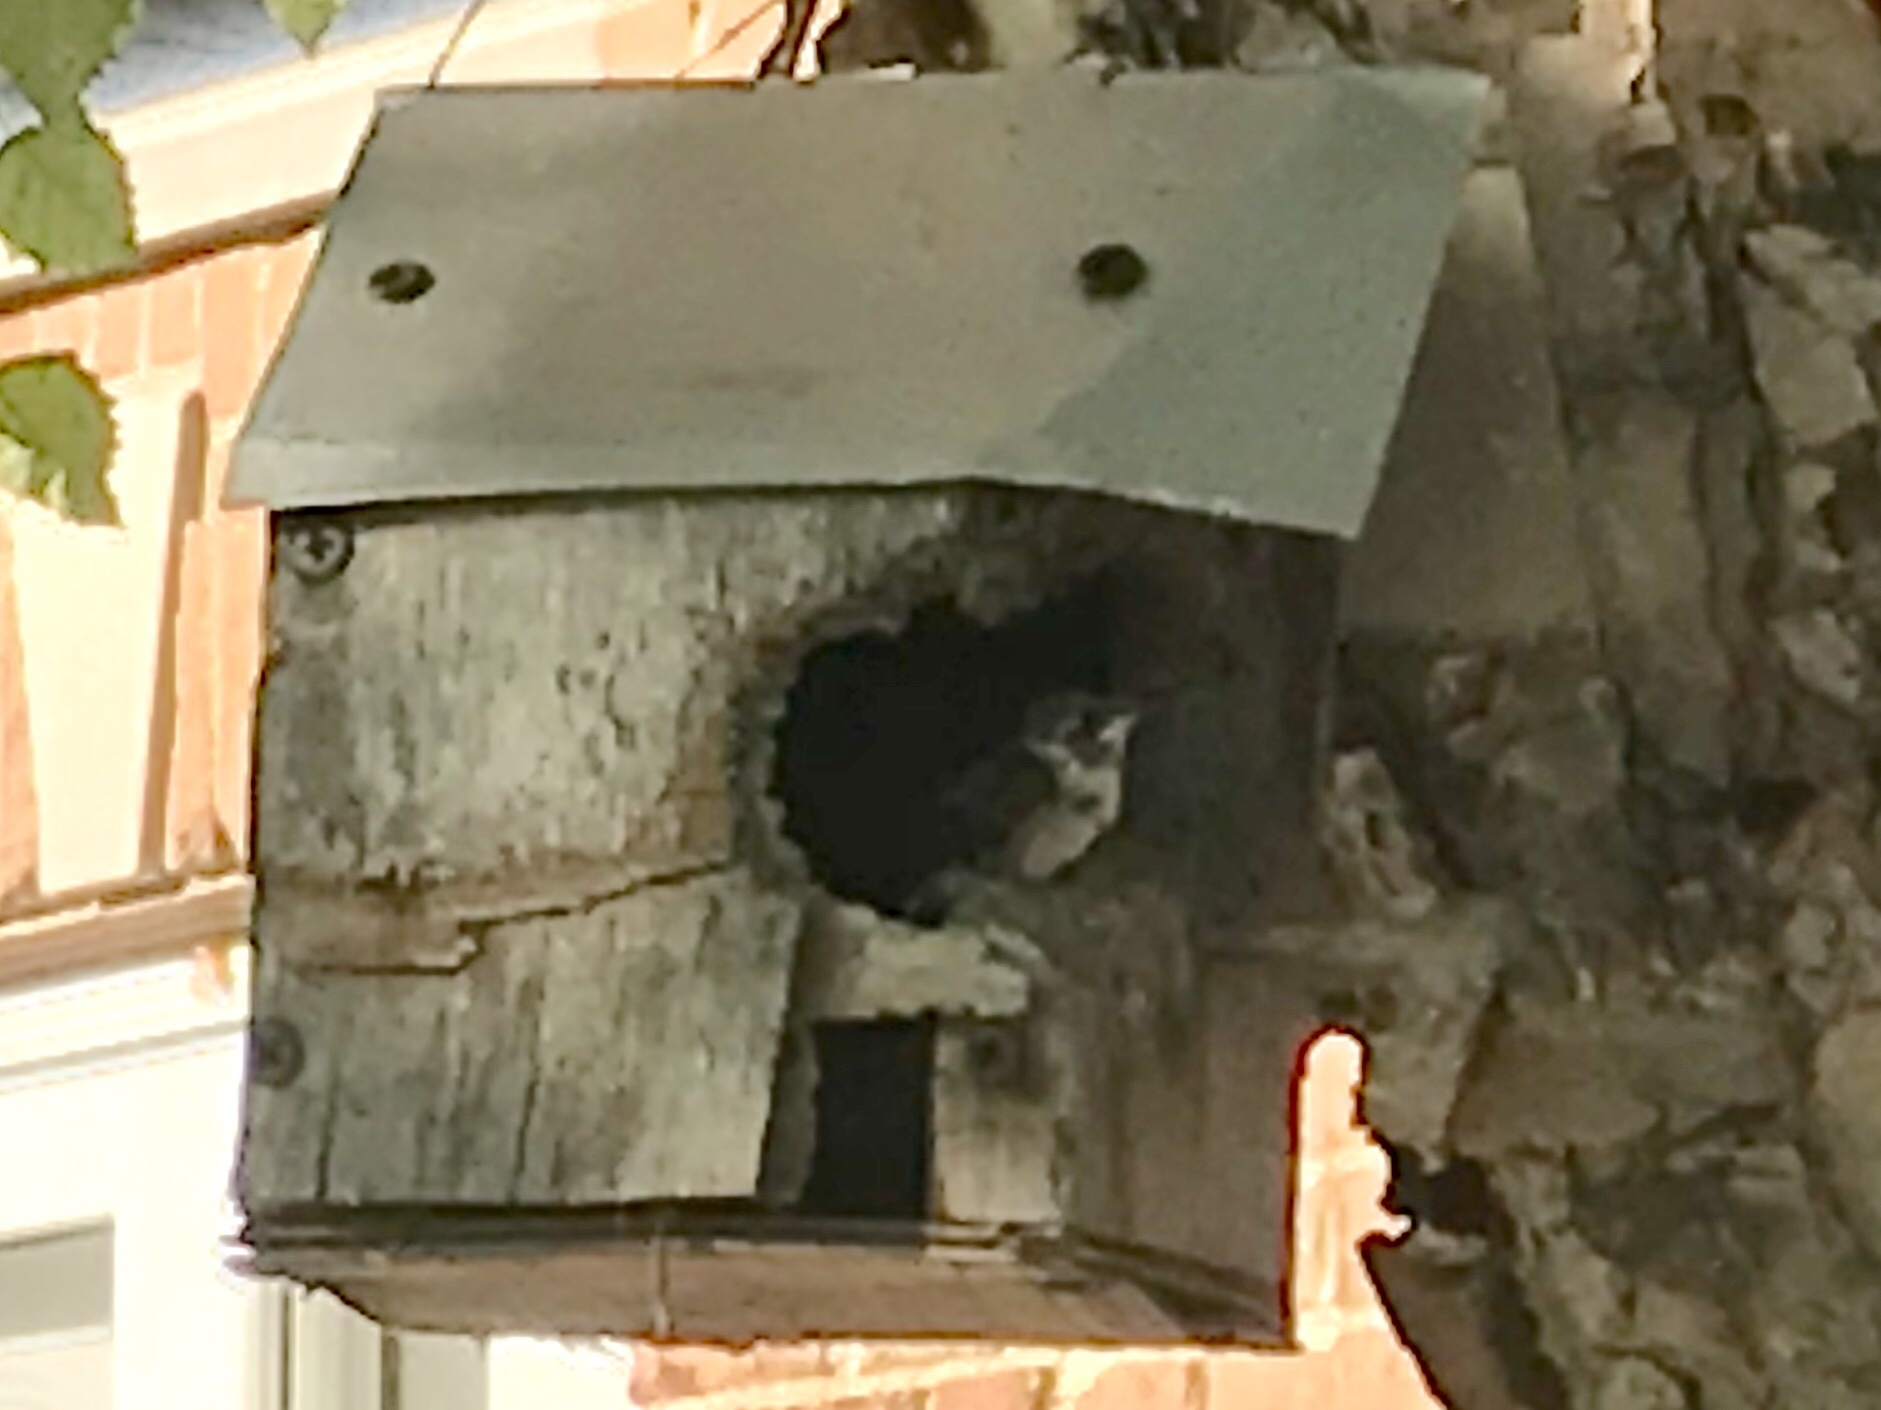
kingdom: Animalia
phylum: Chordata
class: Aves
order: Apodiformes
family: Trochilidae
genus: Archilochus
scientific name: Archilochus colubris
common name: Ruby-throated hummingbird
